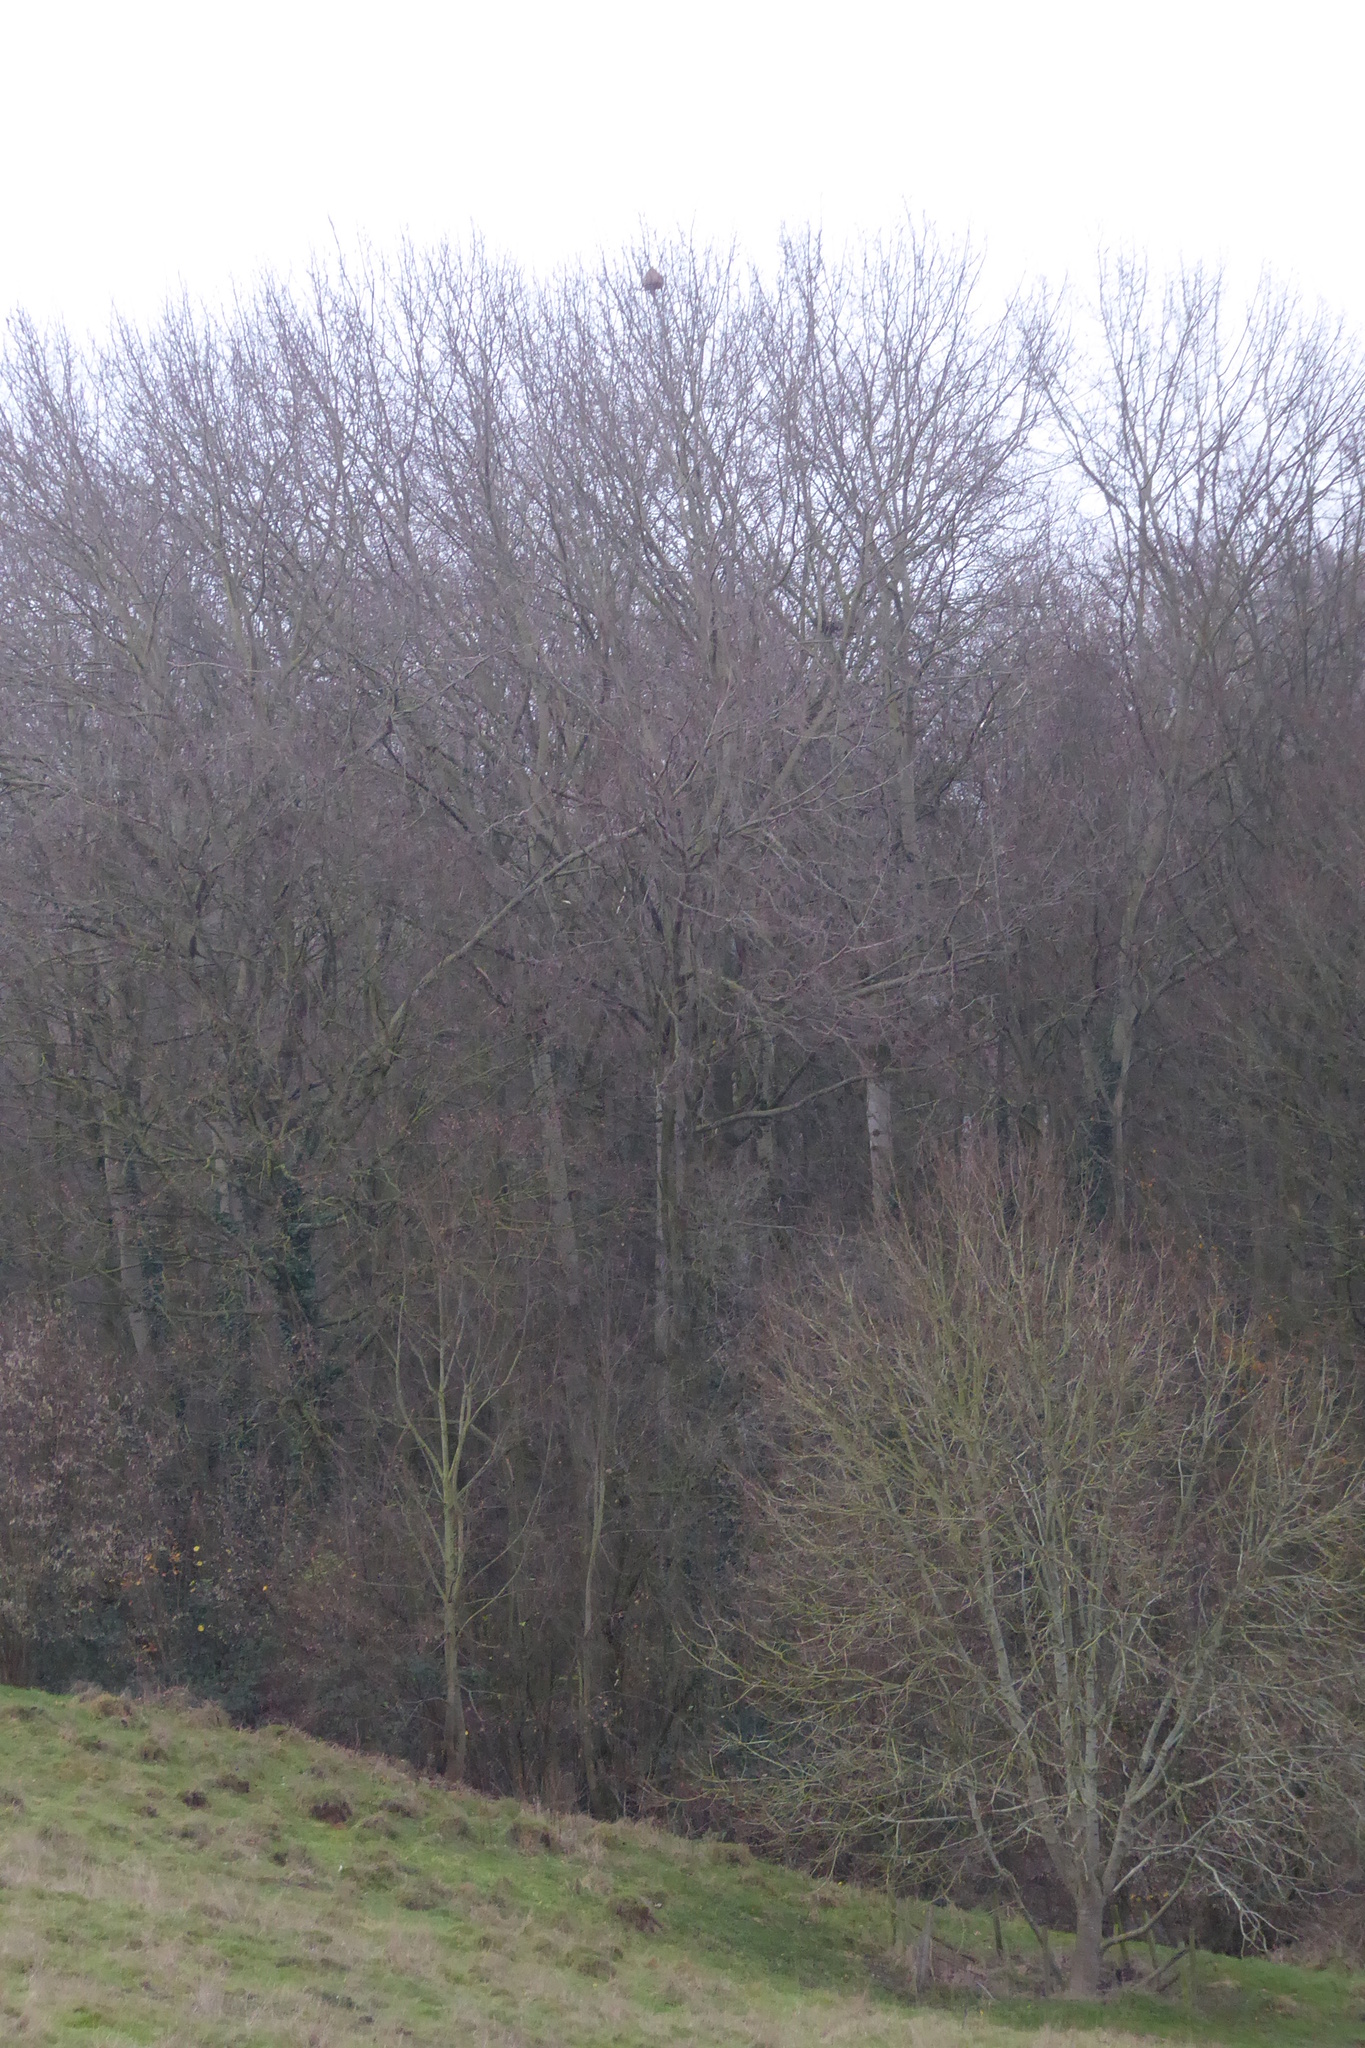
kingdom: Animalia
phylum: Arthropoda
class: Insecta
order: Hymenoptera
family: Vespidae
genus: Vespa
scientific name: Vespa velutina
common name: Asian hornet
